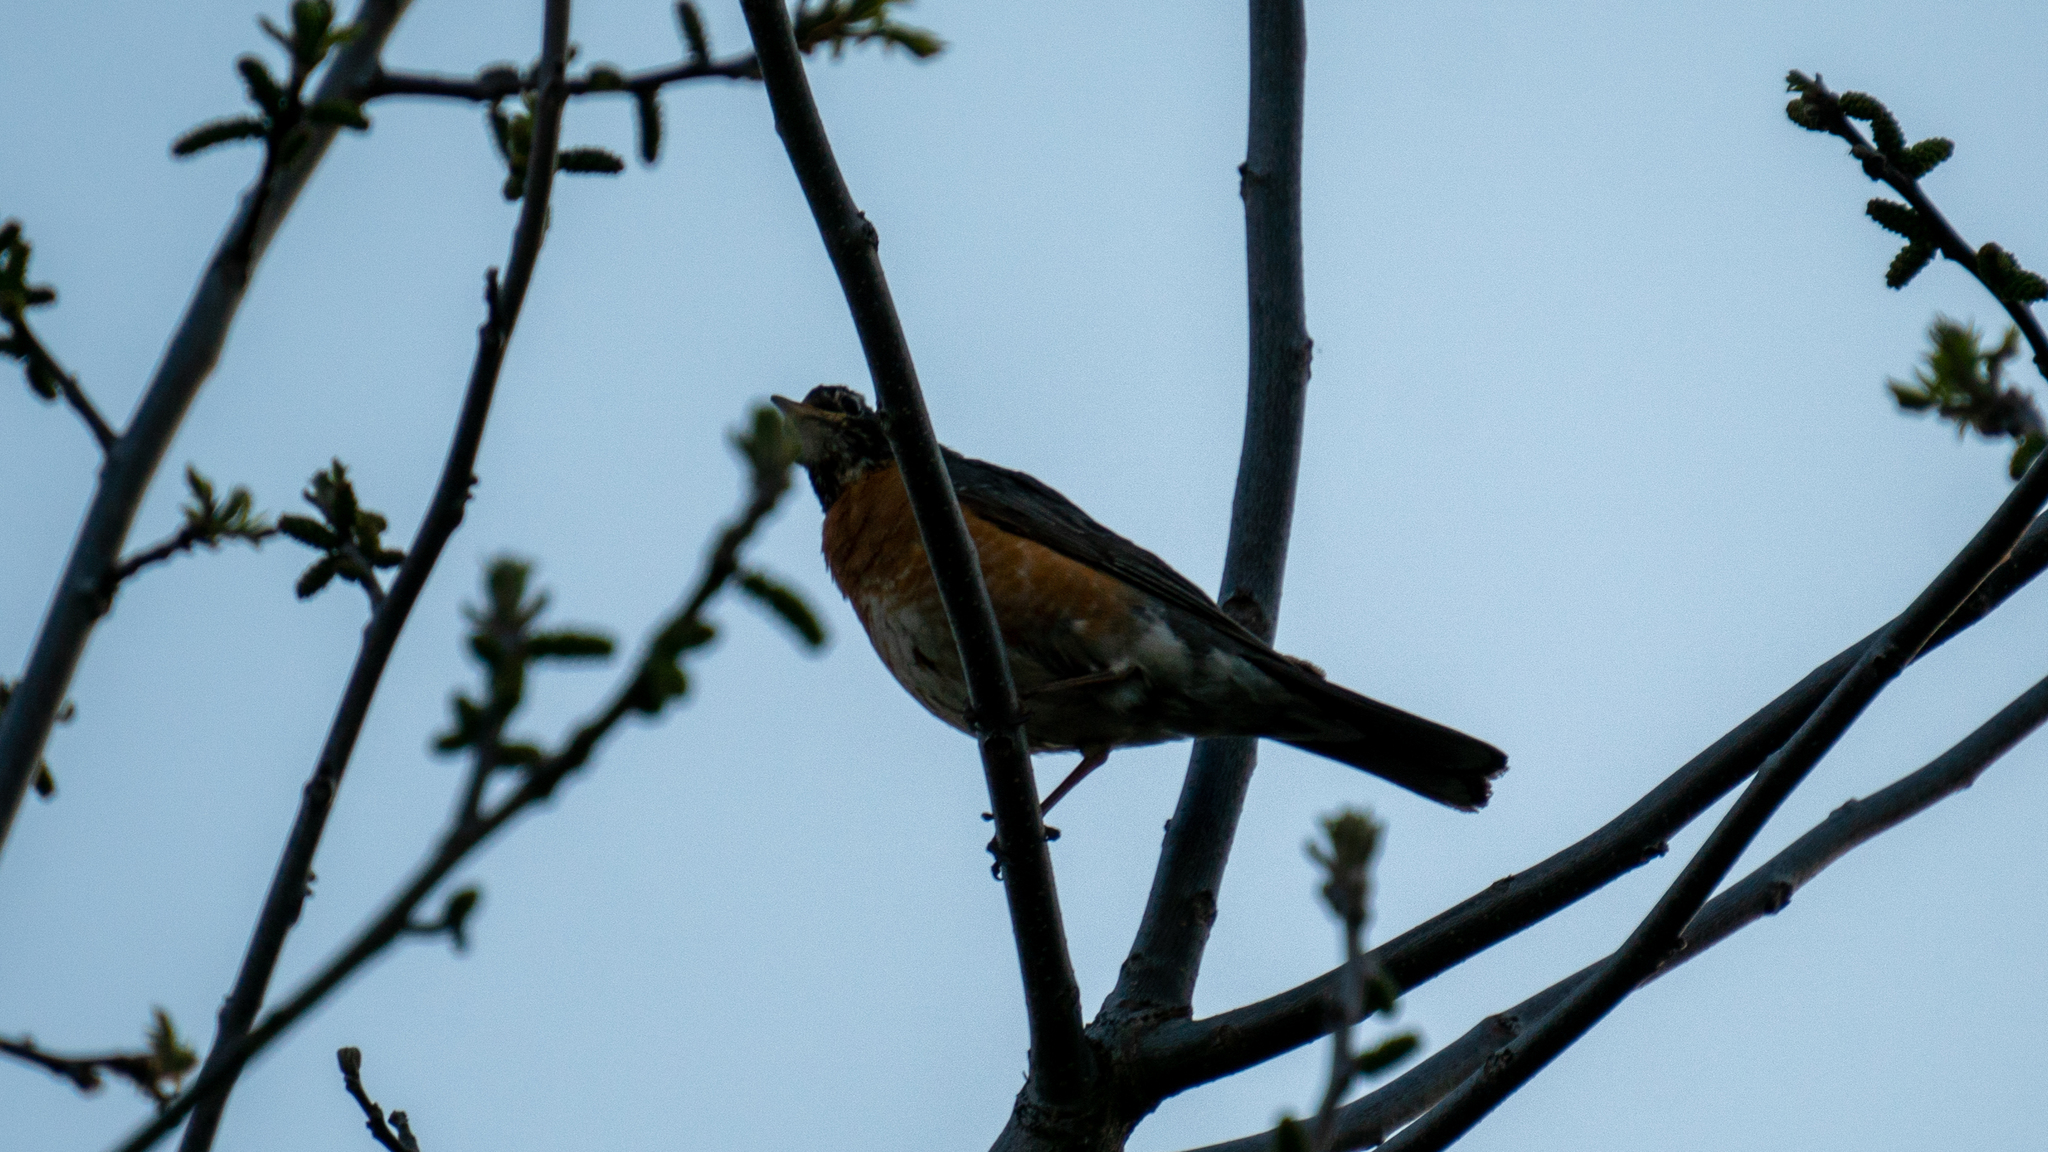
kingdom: Animalia
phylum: Chordata
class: Aves
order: Passeriformes
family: Turdidae
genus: Turdus
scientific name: Turdus migratorius
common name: American robin
